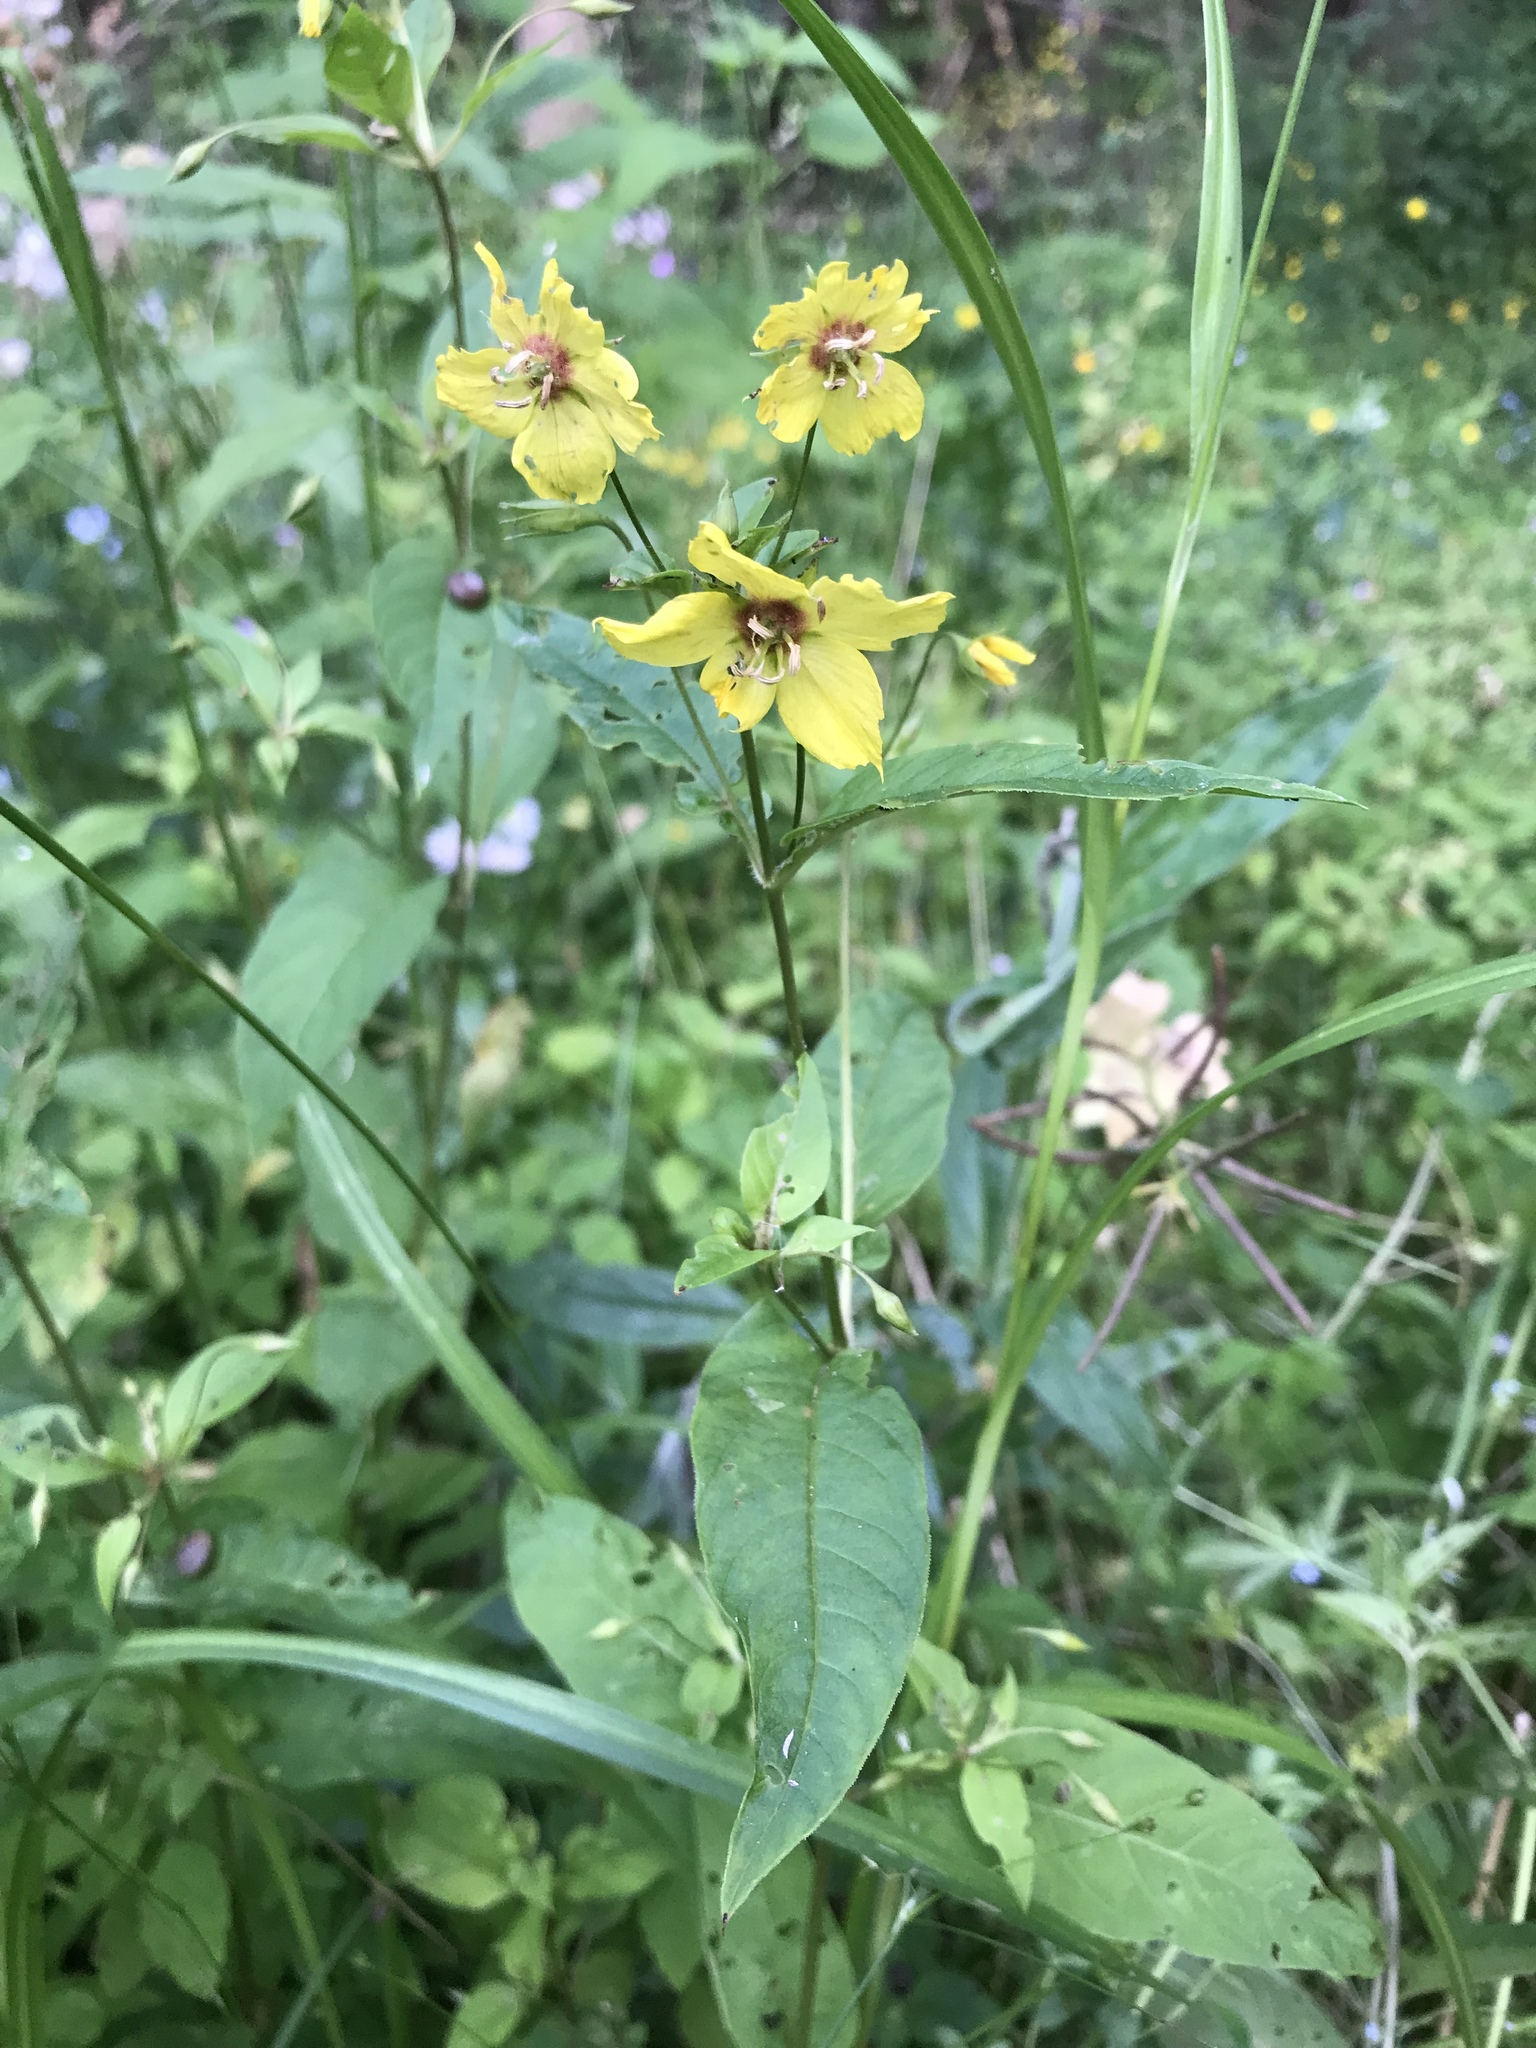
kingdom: Plantae
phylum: Tracheophyta
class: Magnoliopsida
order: Ericales
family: Primulaceae
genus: Lysimachia
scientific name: Lysimachia ciliata
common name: Fringed loosestrife
